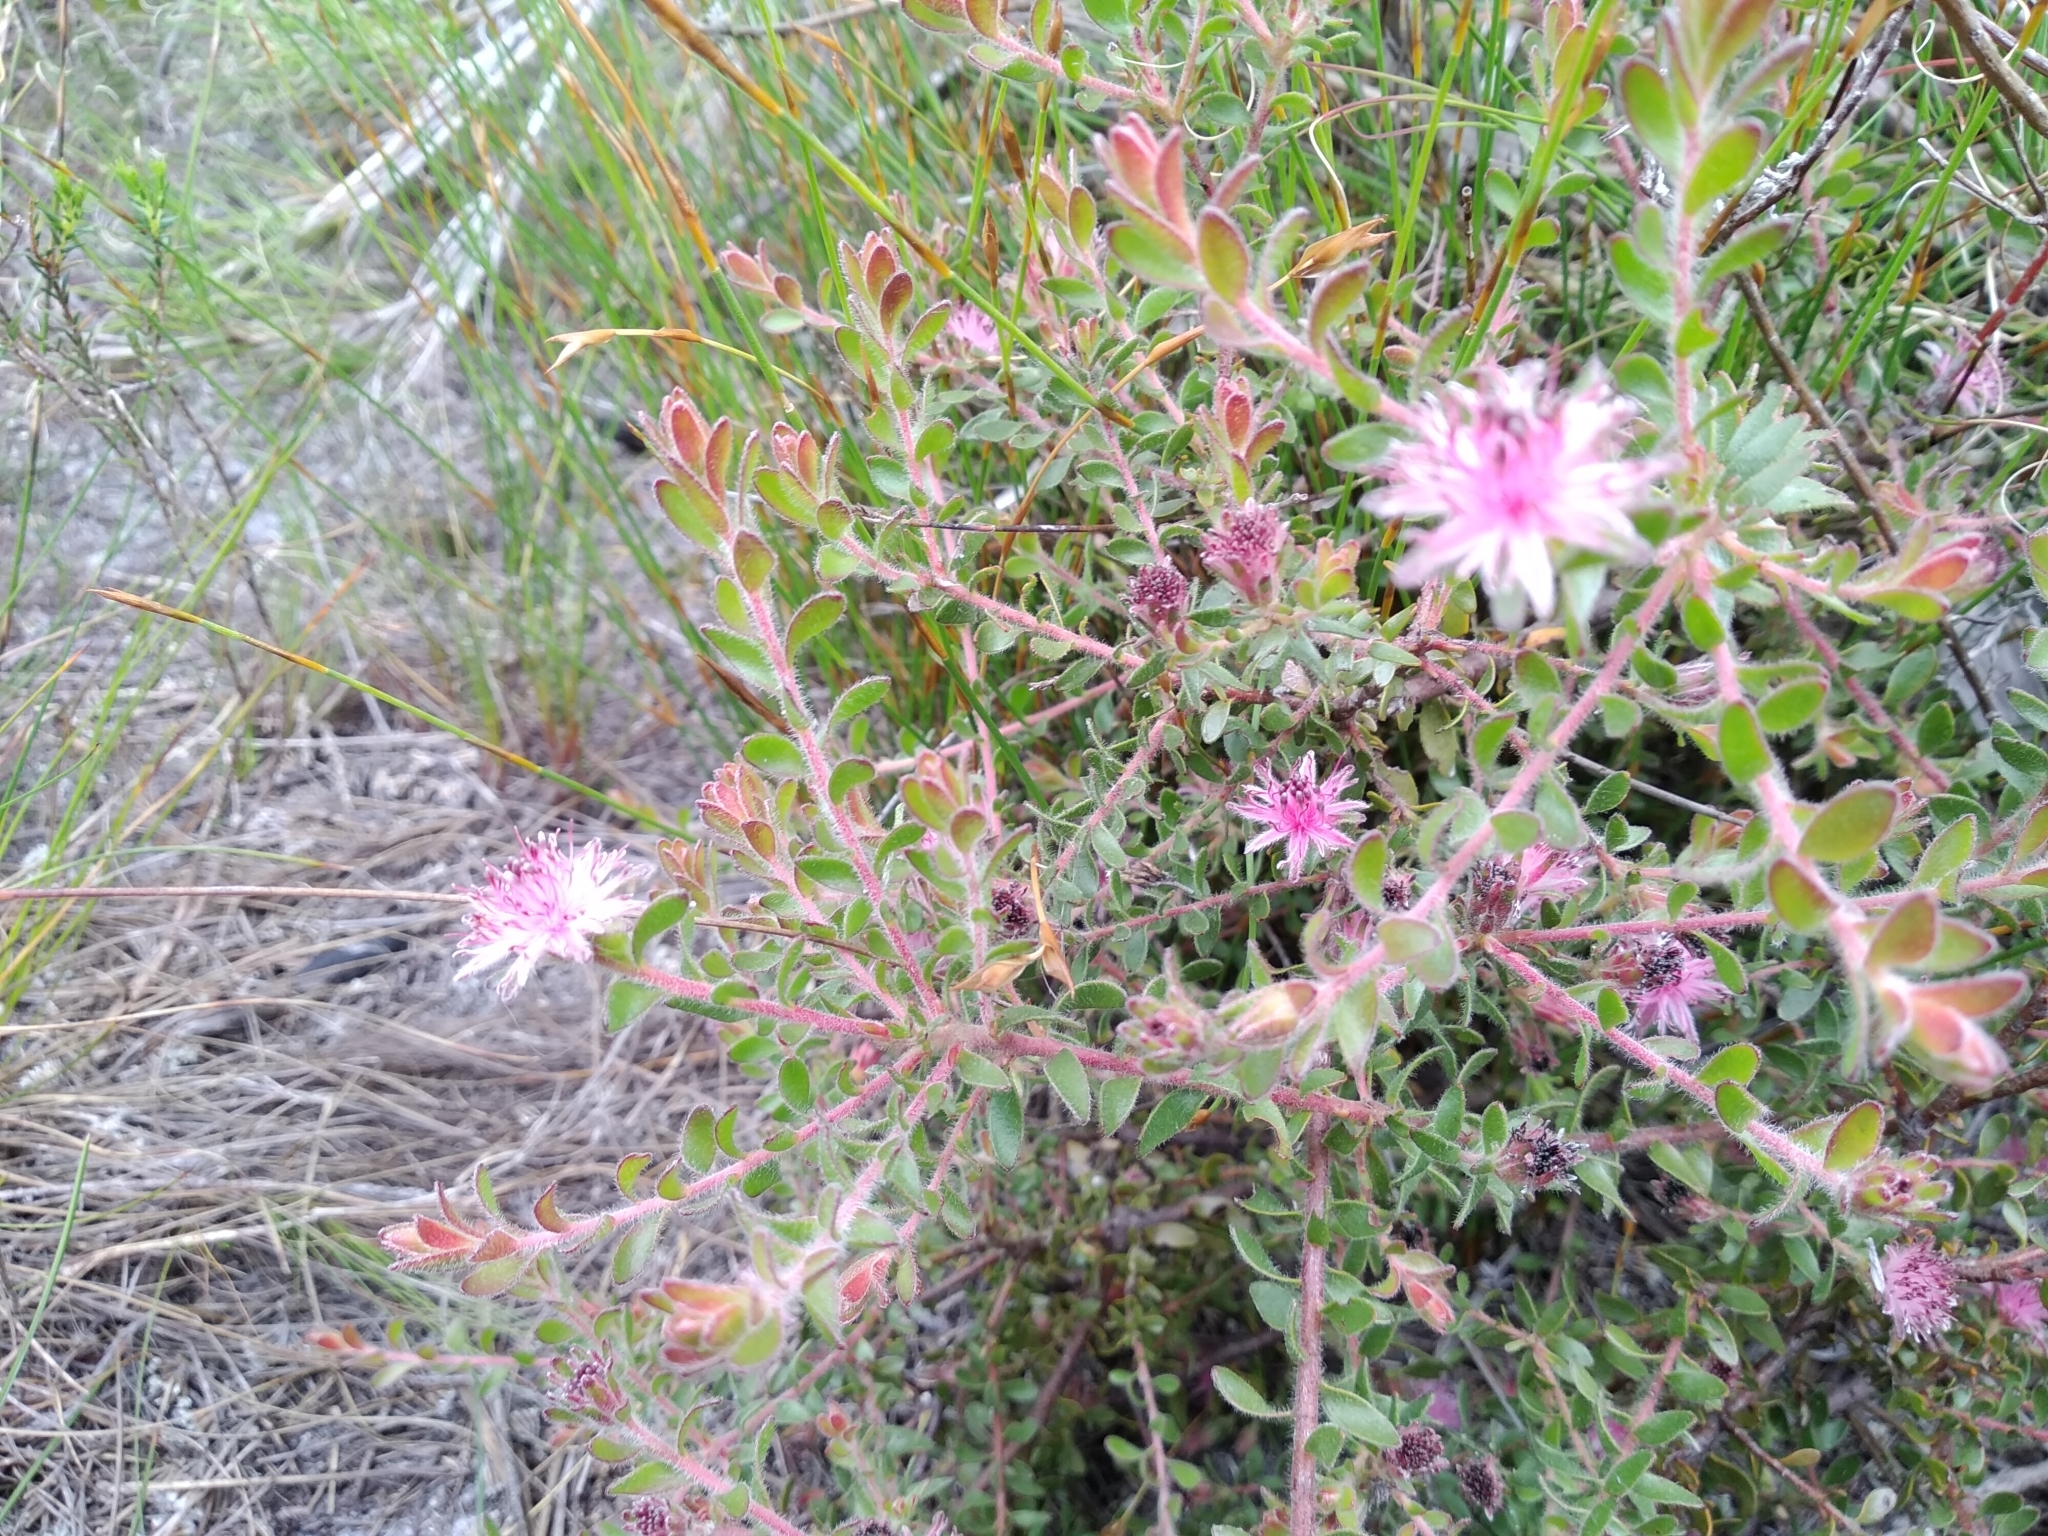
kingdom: Plantae
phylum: Tracheophyta
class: Magnoliopsida
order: Proteales
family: Proteaceae
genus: Diastella
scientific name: Diastella divaricata
